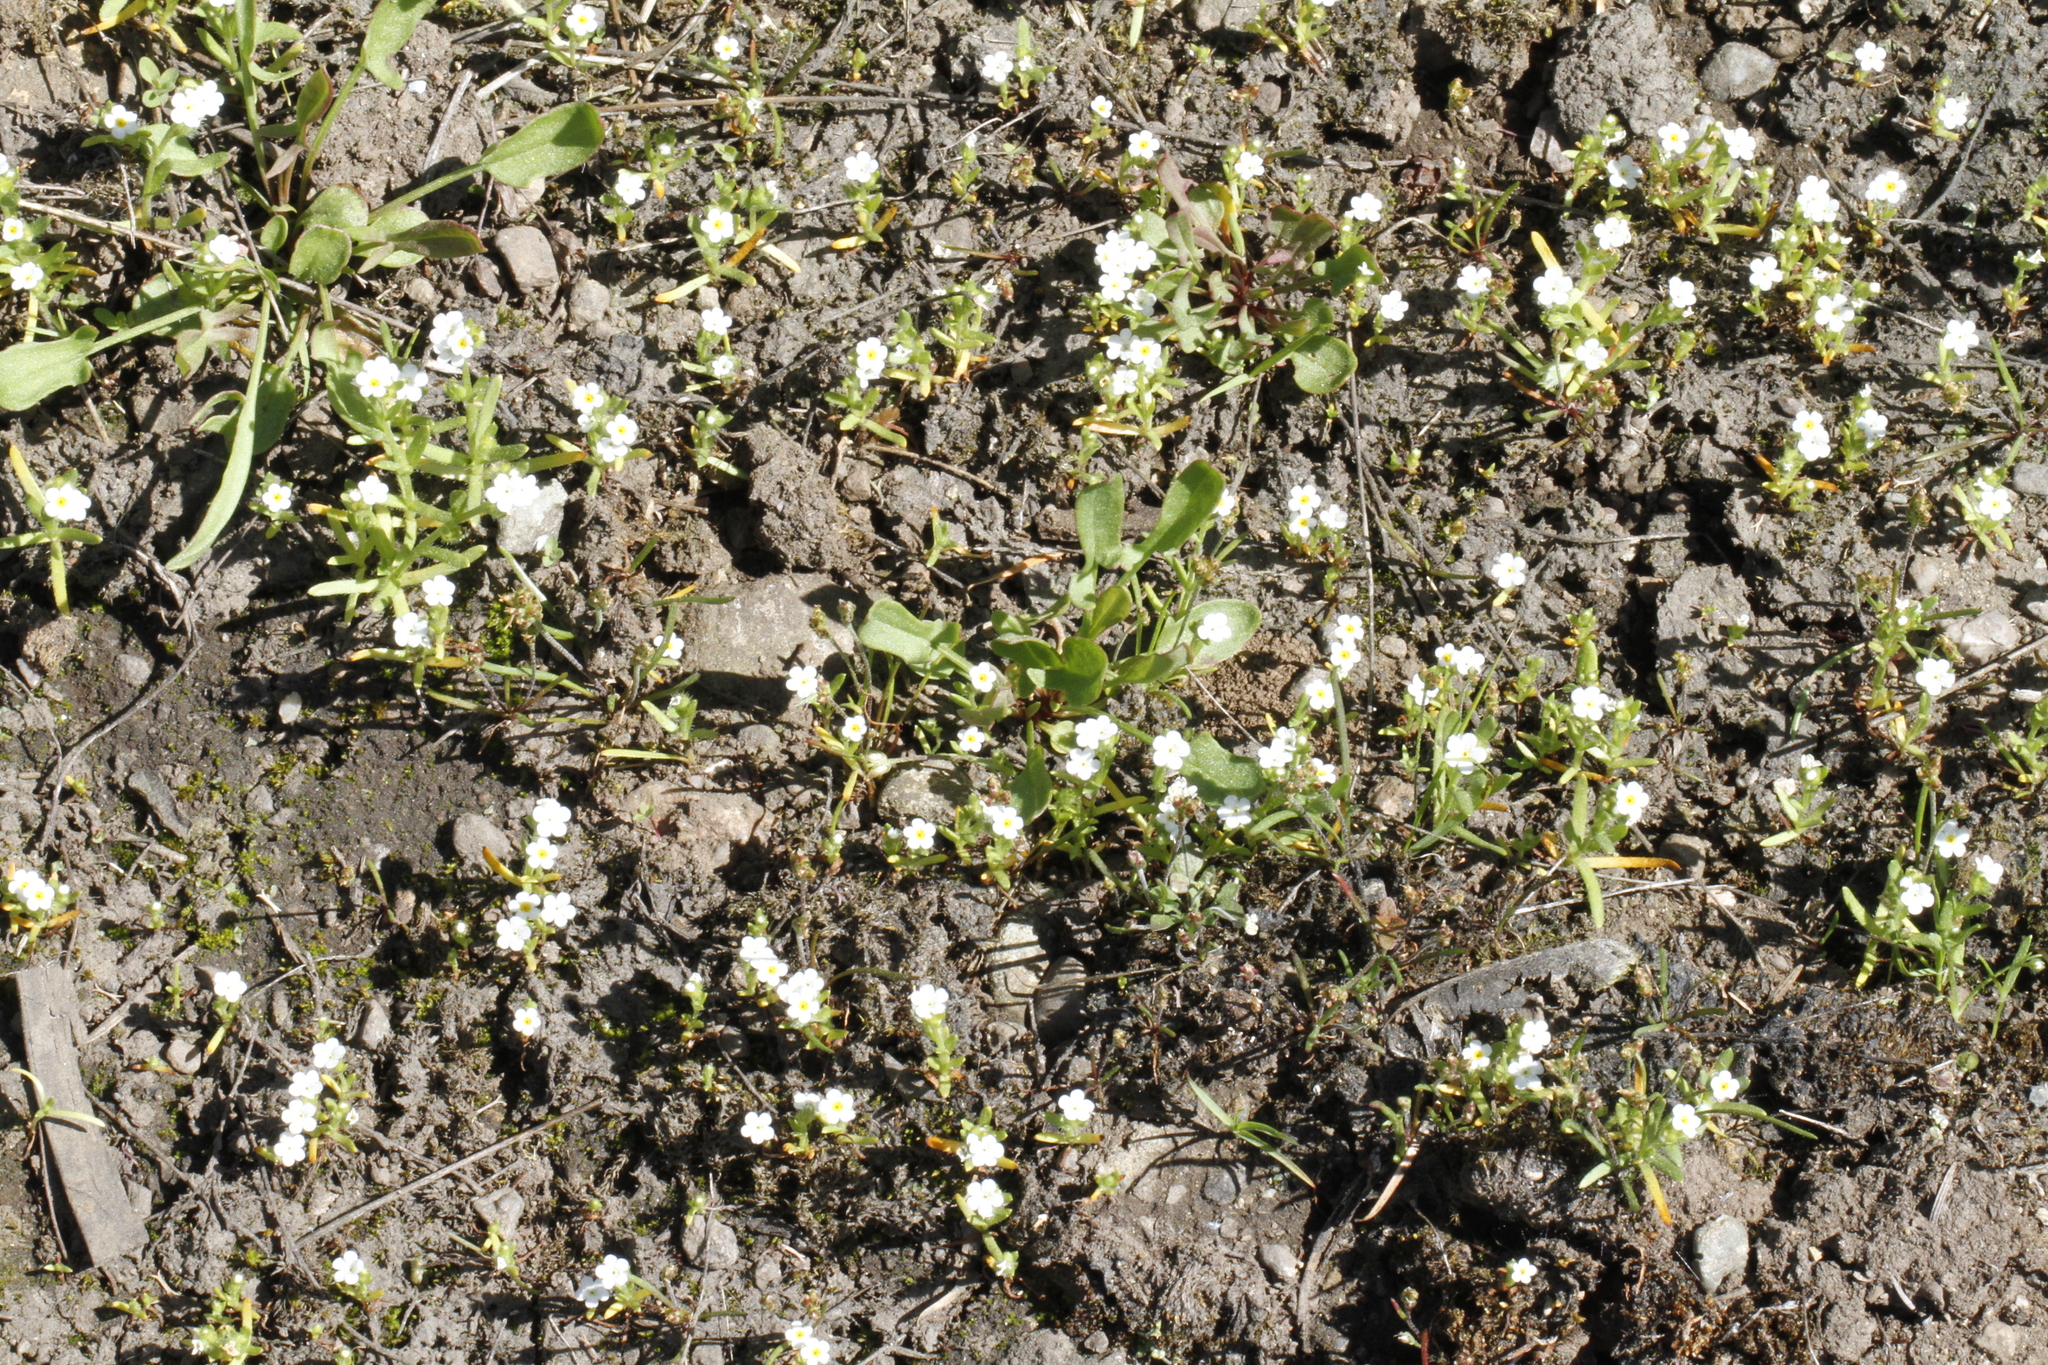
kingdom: Plantae
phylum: Tracheophyta
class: Magnoliopsida
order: Boraginales
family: Boraginaceae
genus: Plagiobothrys
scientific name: Plagiobothrys scouleri
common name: White forget-me-not
